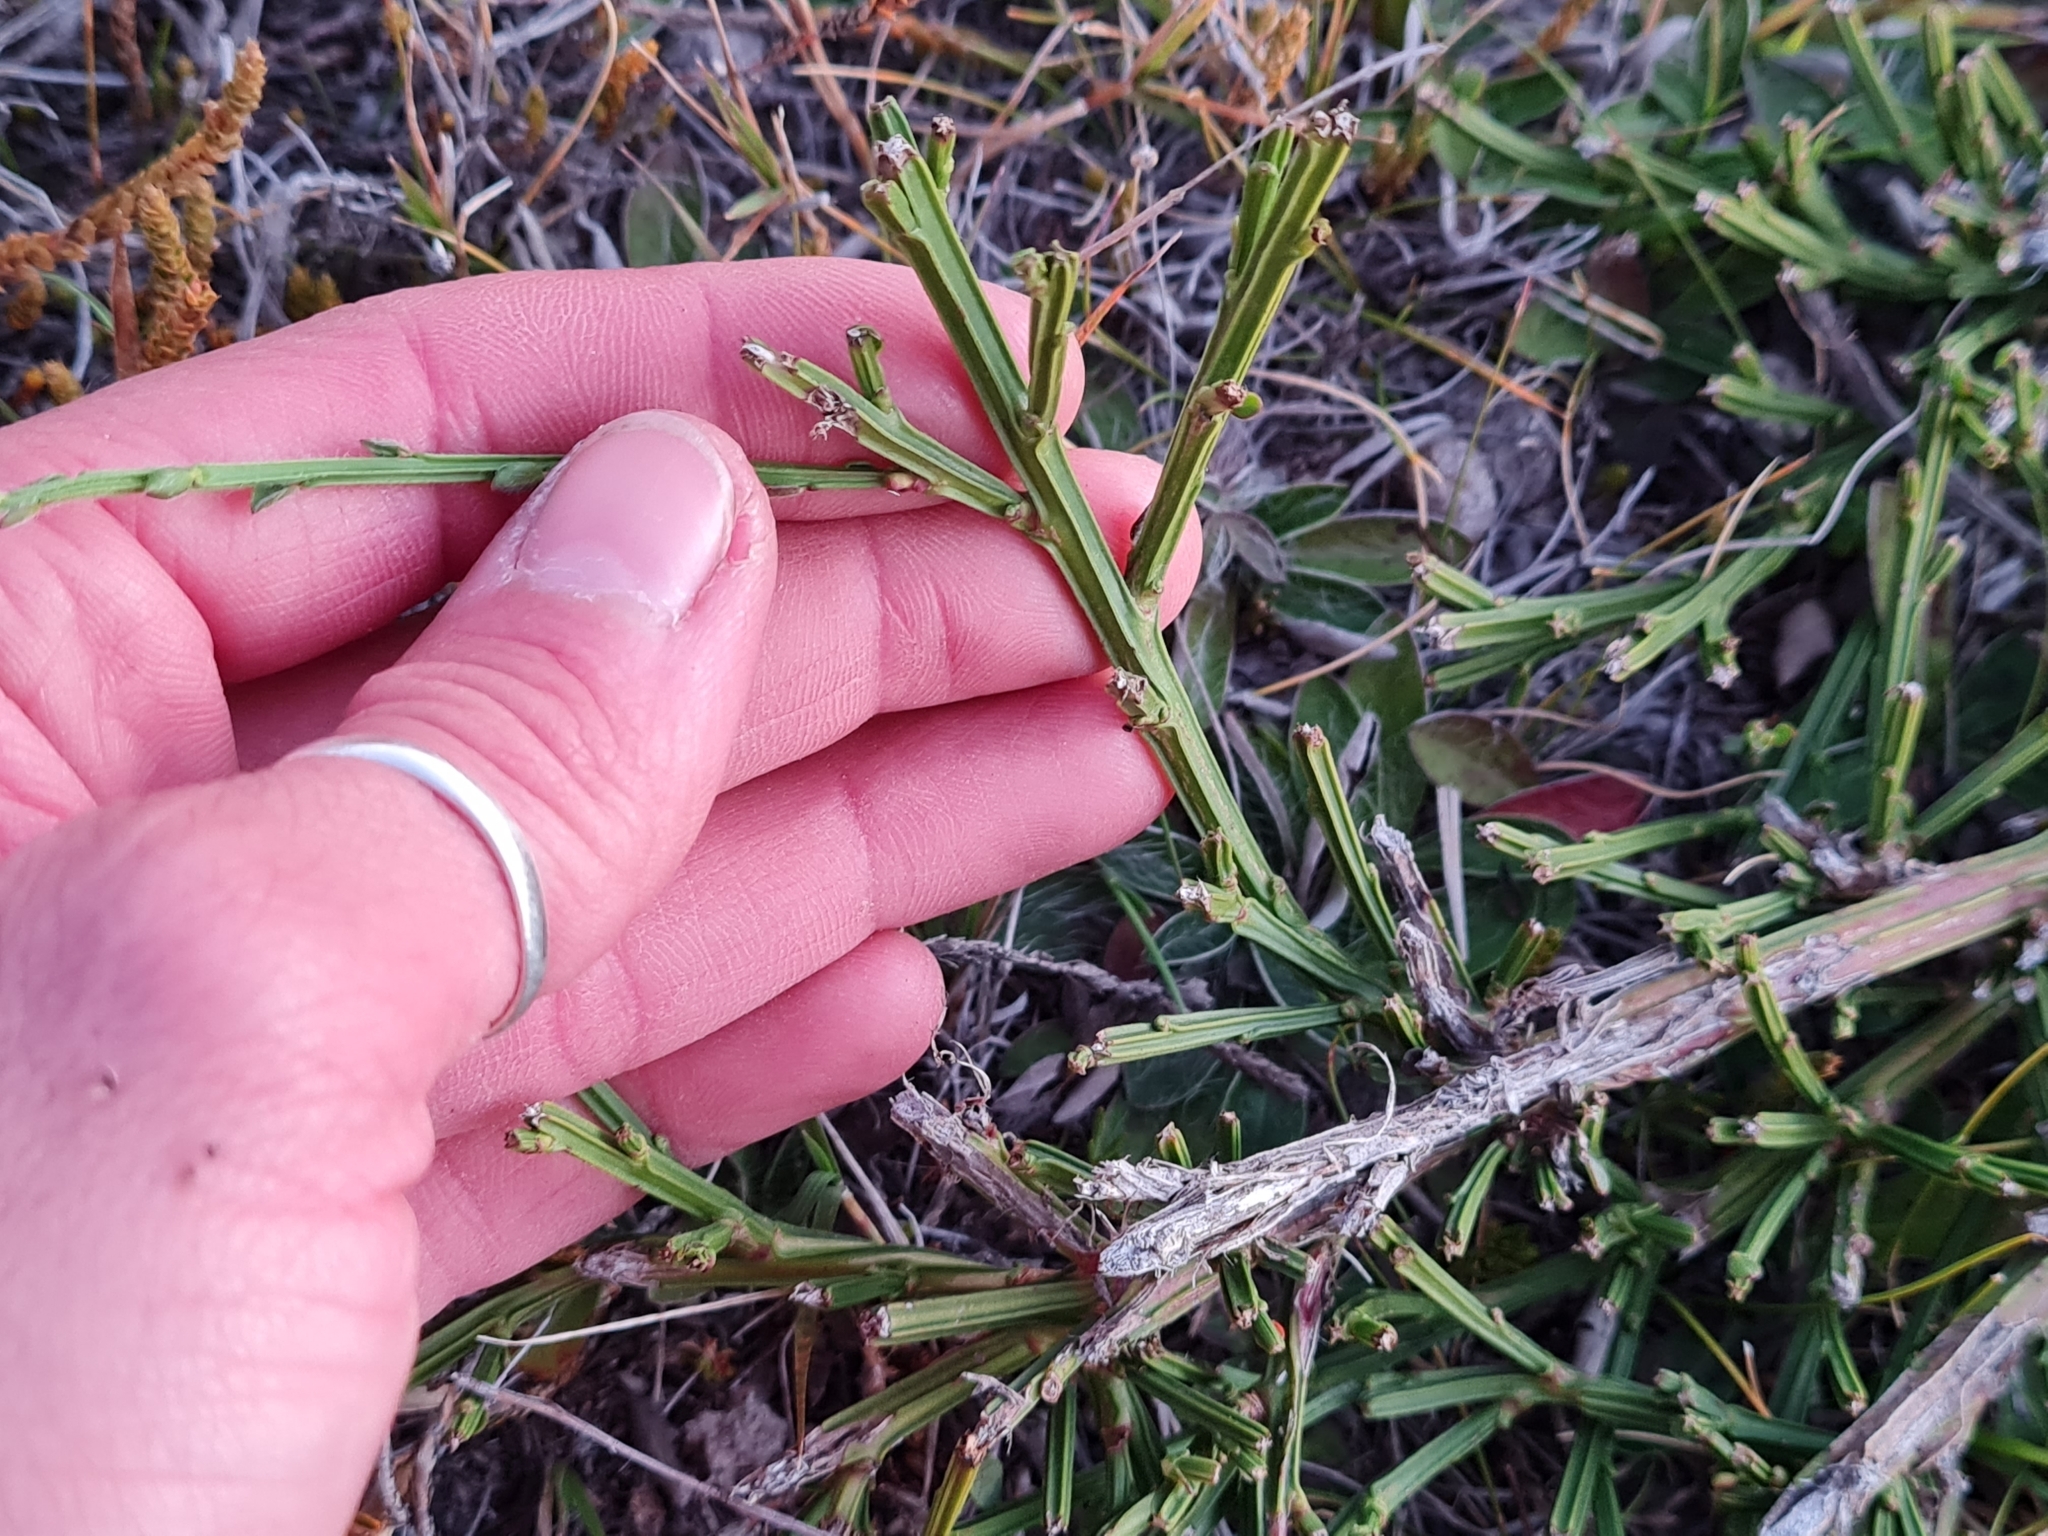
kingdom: Plantae
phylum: Tracheophyta
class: Magnoliopsida
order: Fabales
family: Fabaceae
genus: Cytisus
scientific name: Cytisus scoparius
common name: Scotch broom
